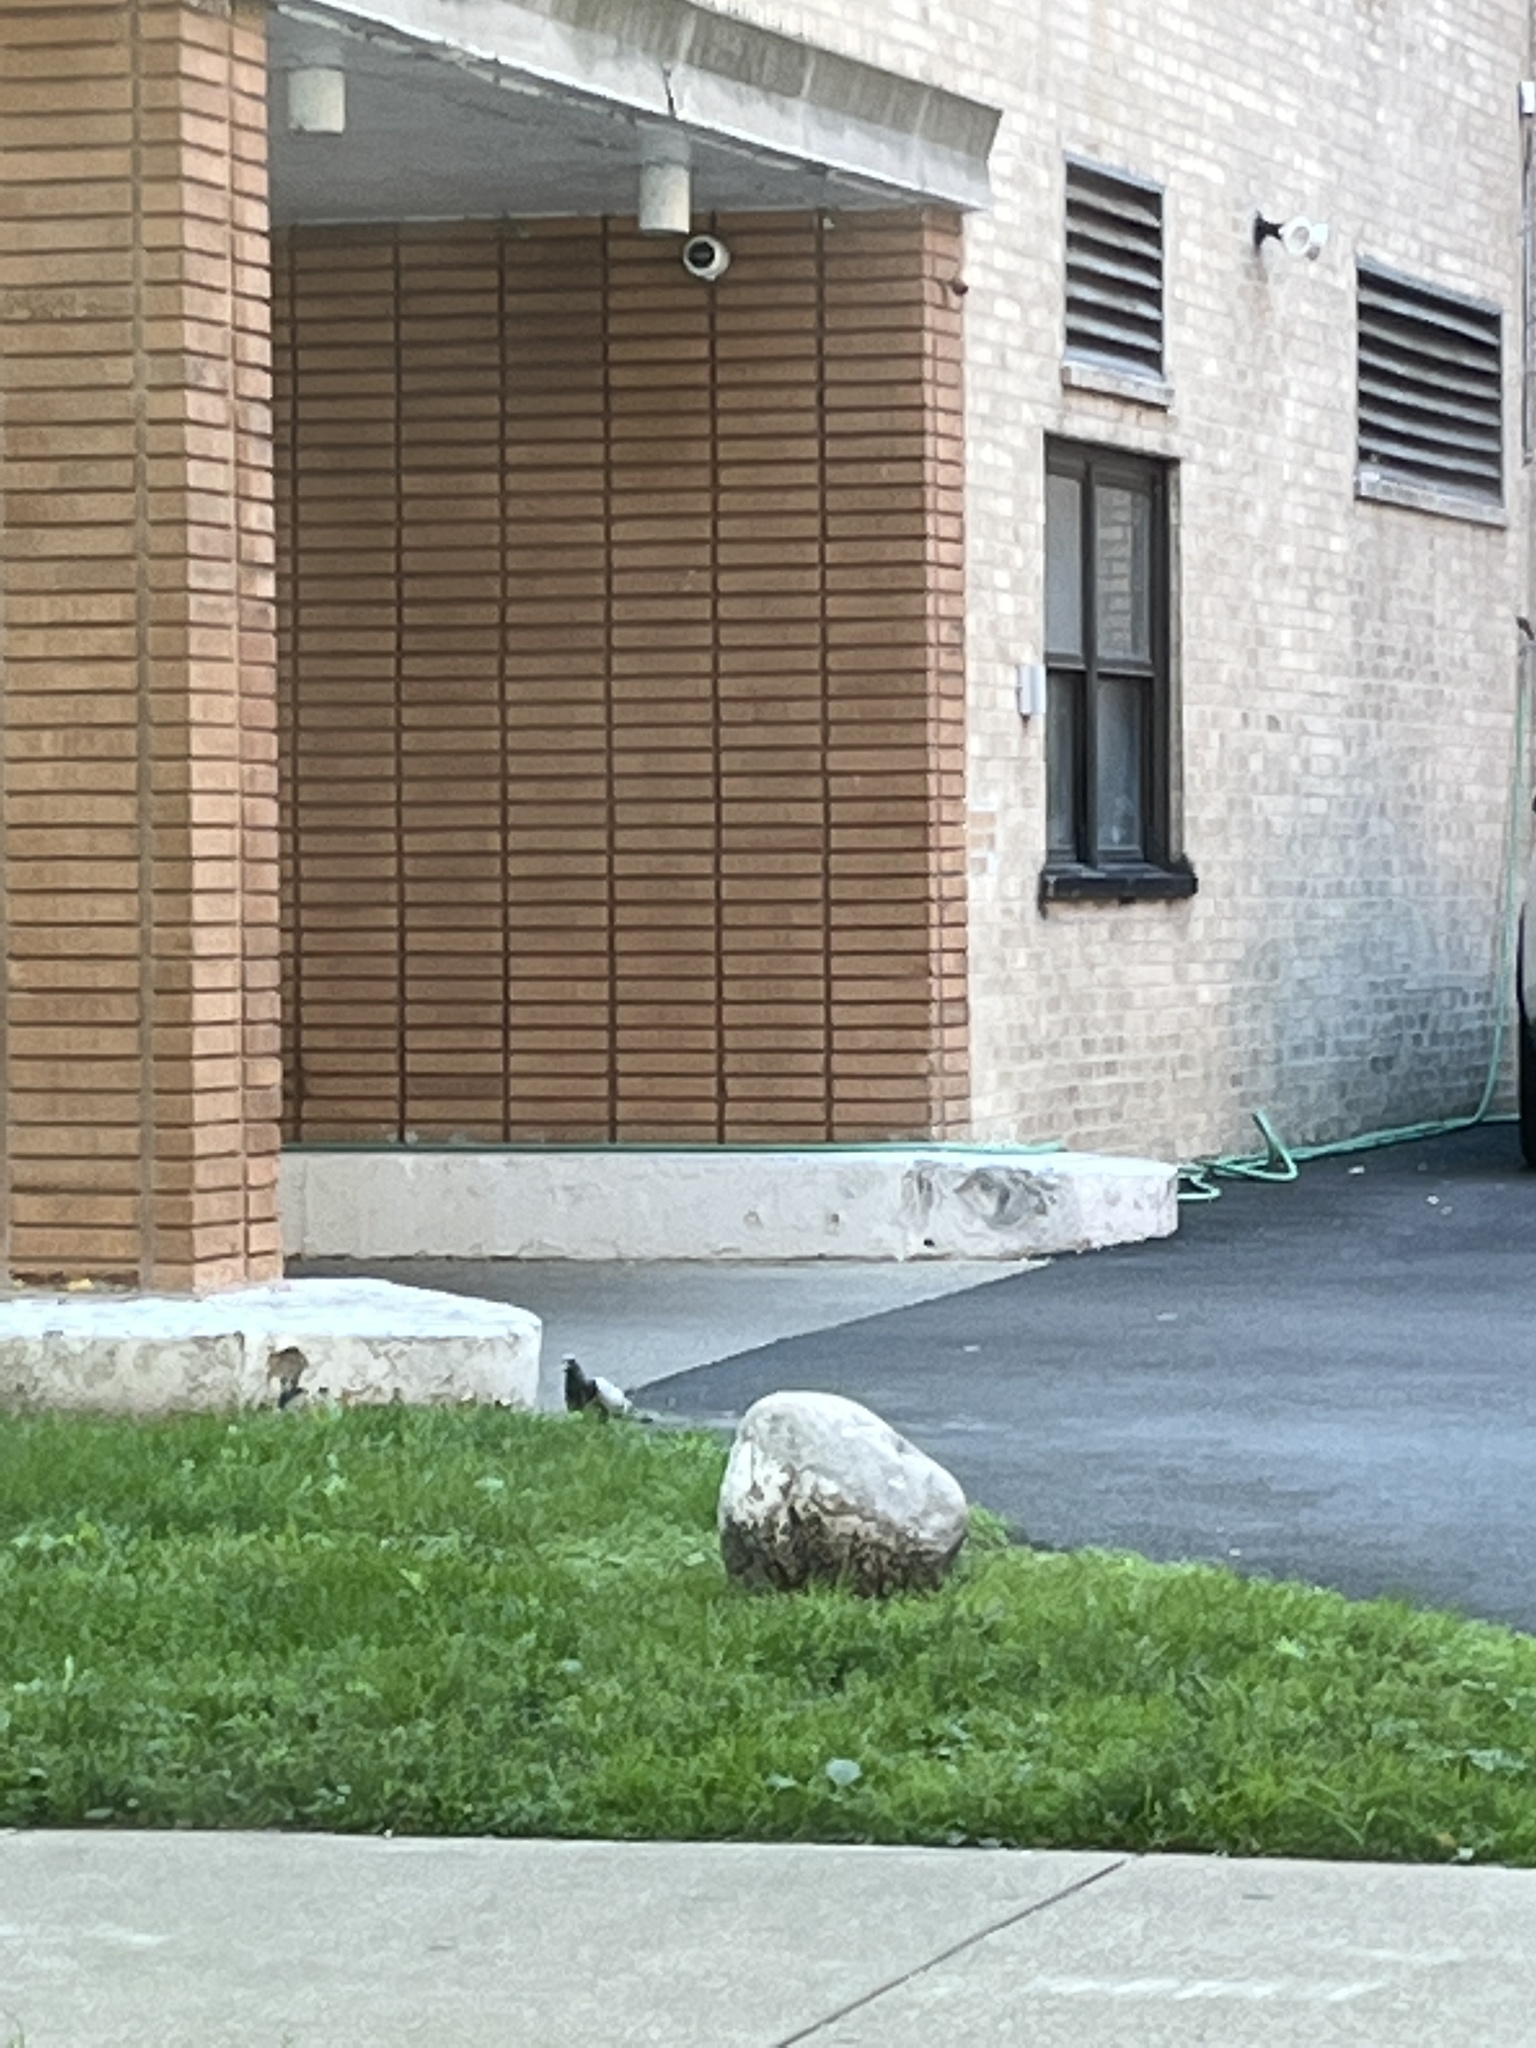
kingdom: Animalia
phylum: Chordata
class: Aves
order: Columbiformes
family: Columbidae
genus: Columba
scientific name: Columba livia
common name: Rock pigeon
